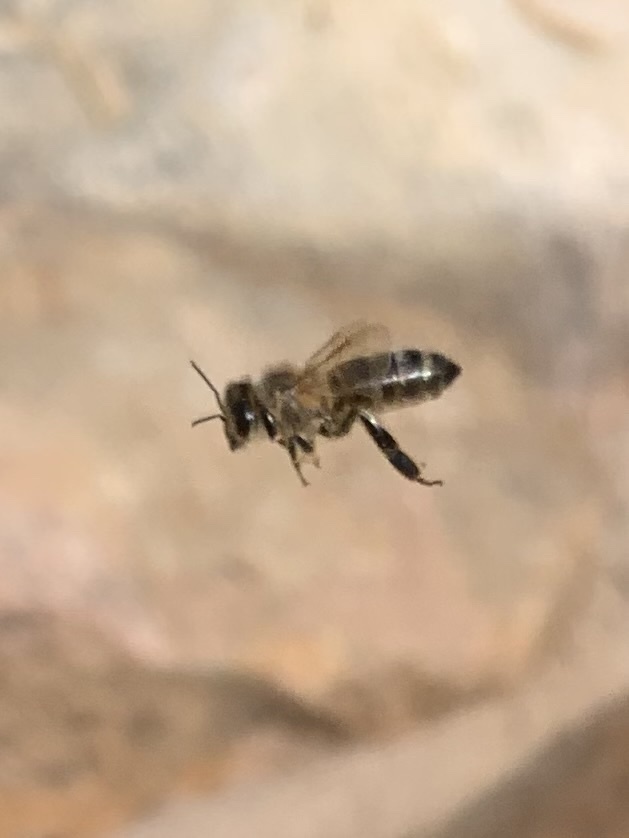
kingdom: Animalia
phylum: Arthropoda
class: Insecta
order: Hymenoptera
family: Apidae
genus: Apis
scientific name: Apis mellifera
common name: Honey bee
